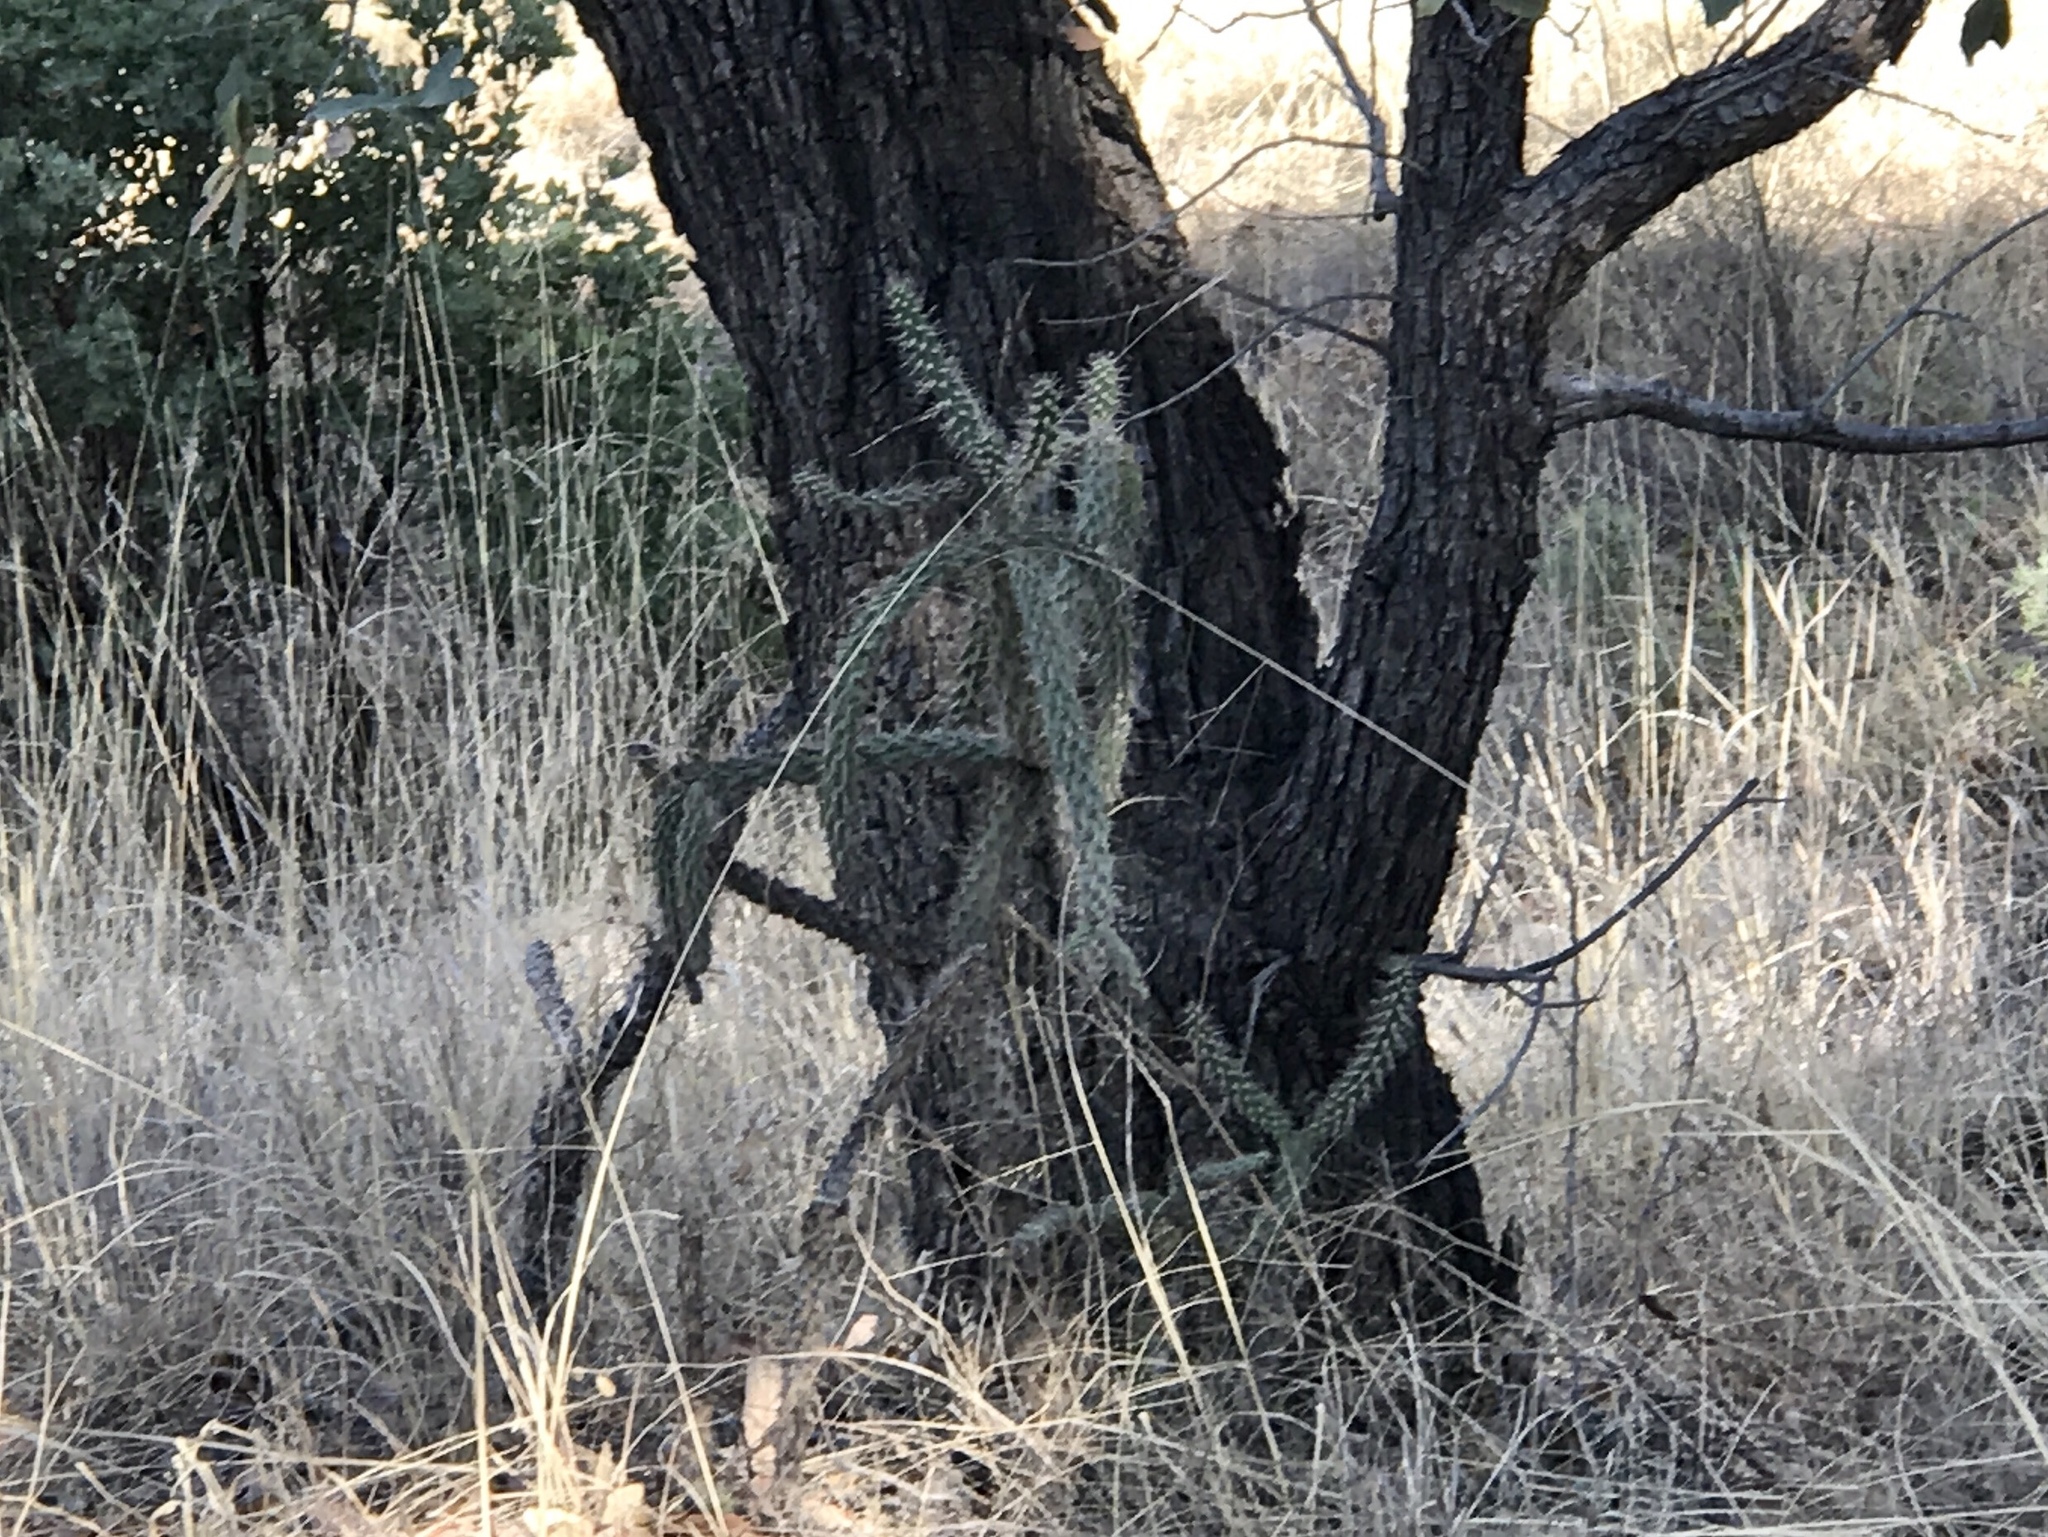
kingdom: Plantae
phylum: Tracheophyta
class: Magnoliopsida
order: Caryophyllales
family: Cactaceae
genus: Cylindropuntia
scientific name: Cylindropuntia imbricata
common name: Candelabrum cactus
